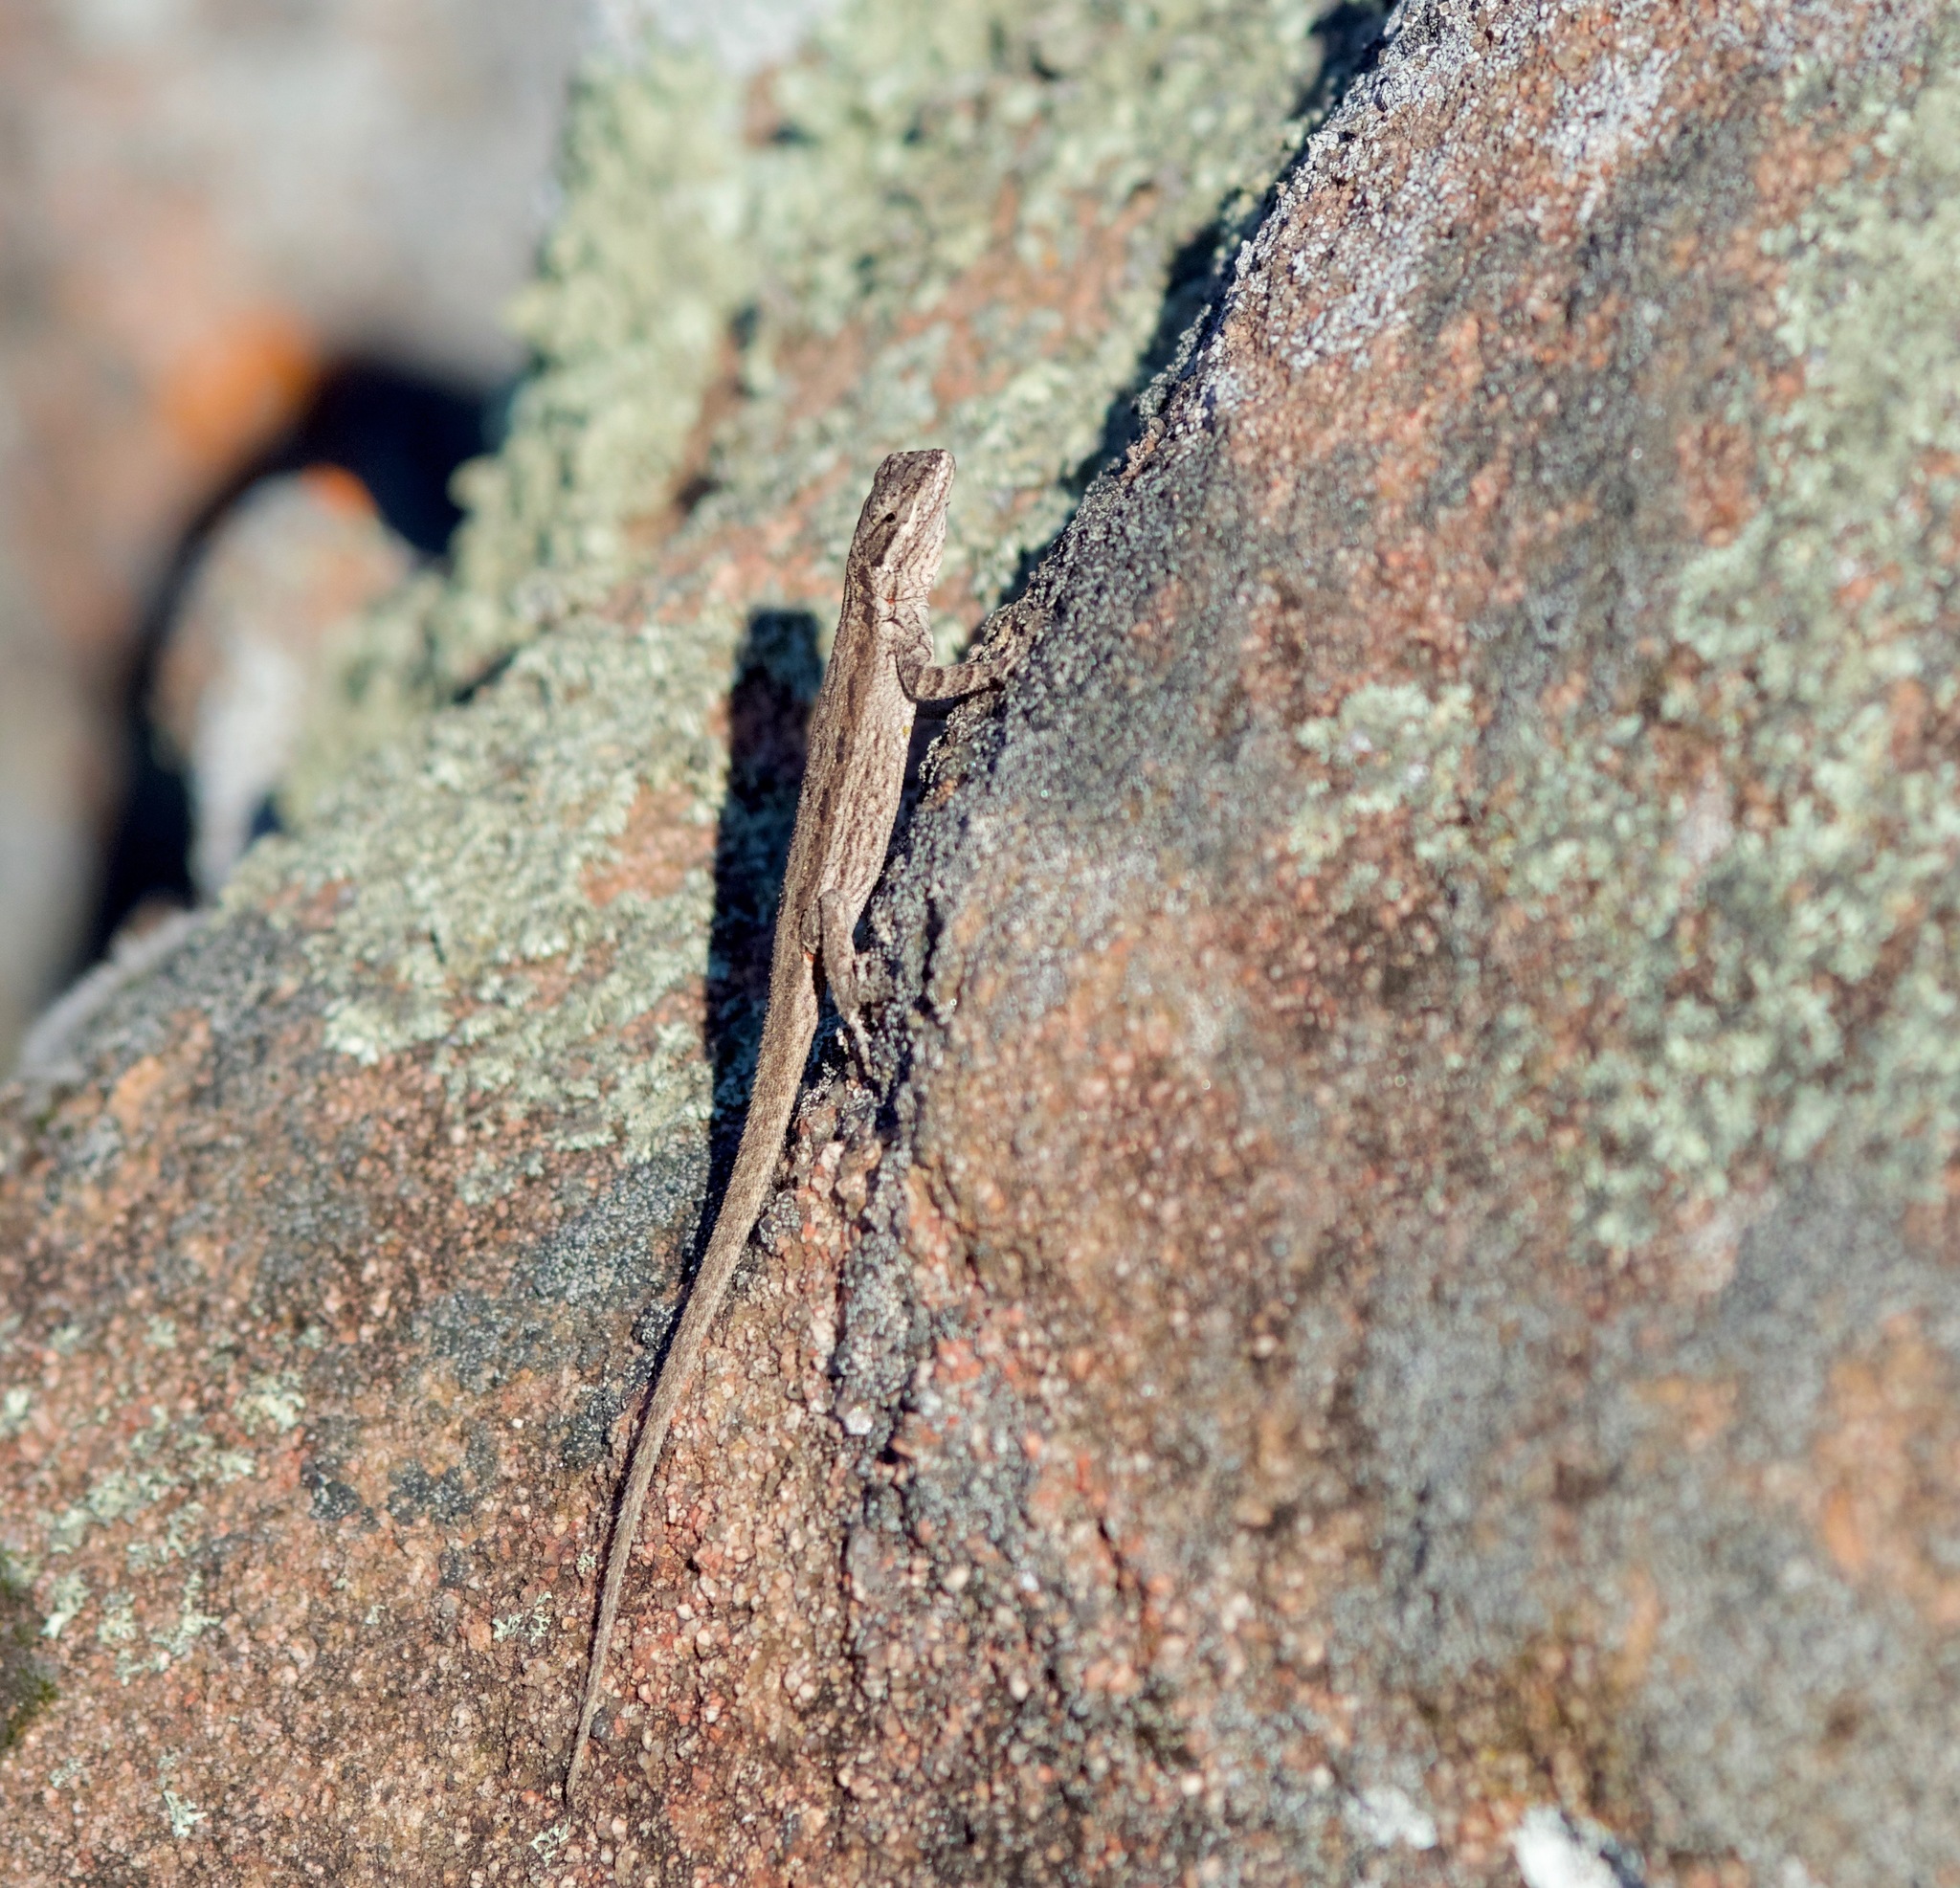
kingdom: Animalia
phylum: Chordata
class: Squamata
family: Phrynosomatidae
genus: Urosaurus
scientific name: Urosaurus ornatus
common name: Ornate tree lizard
